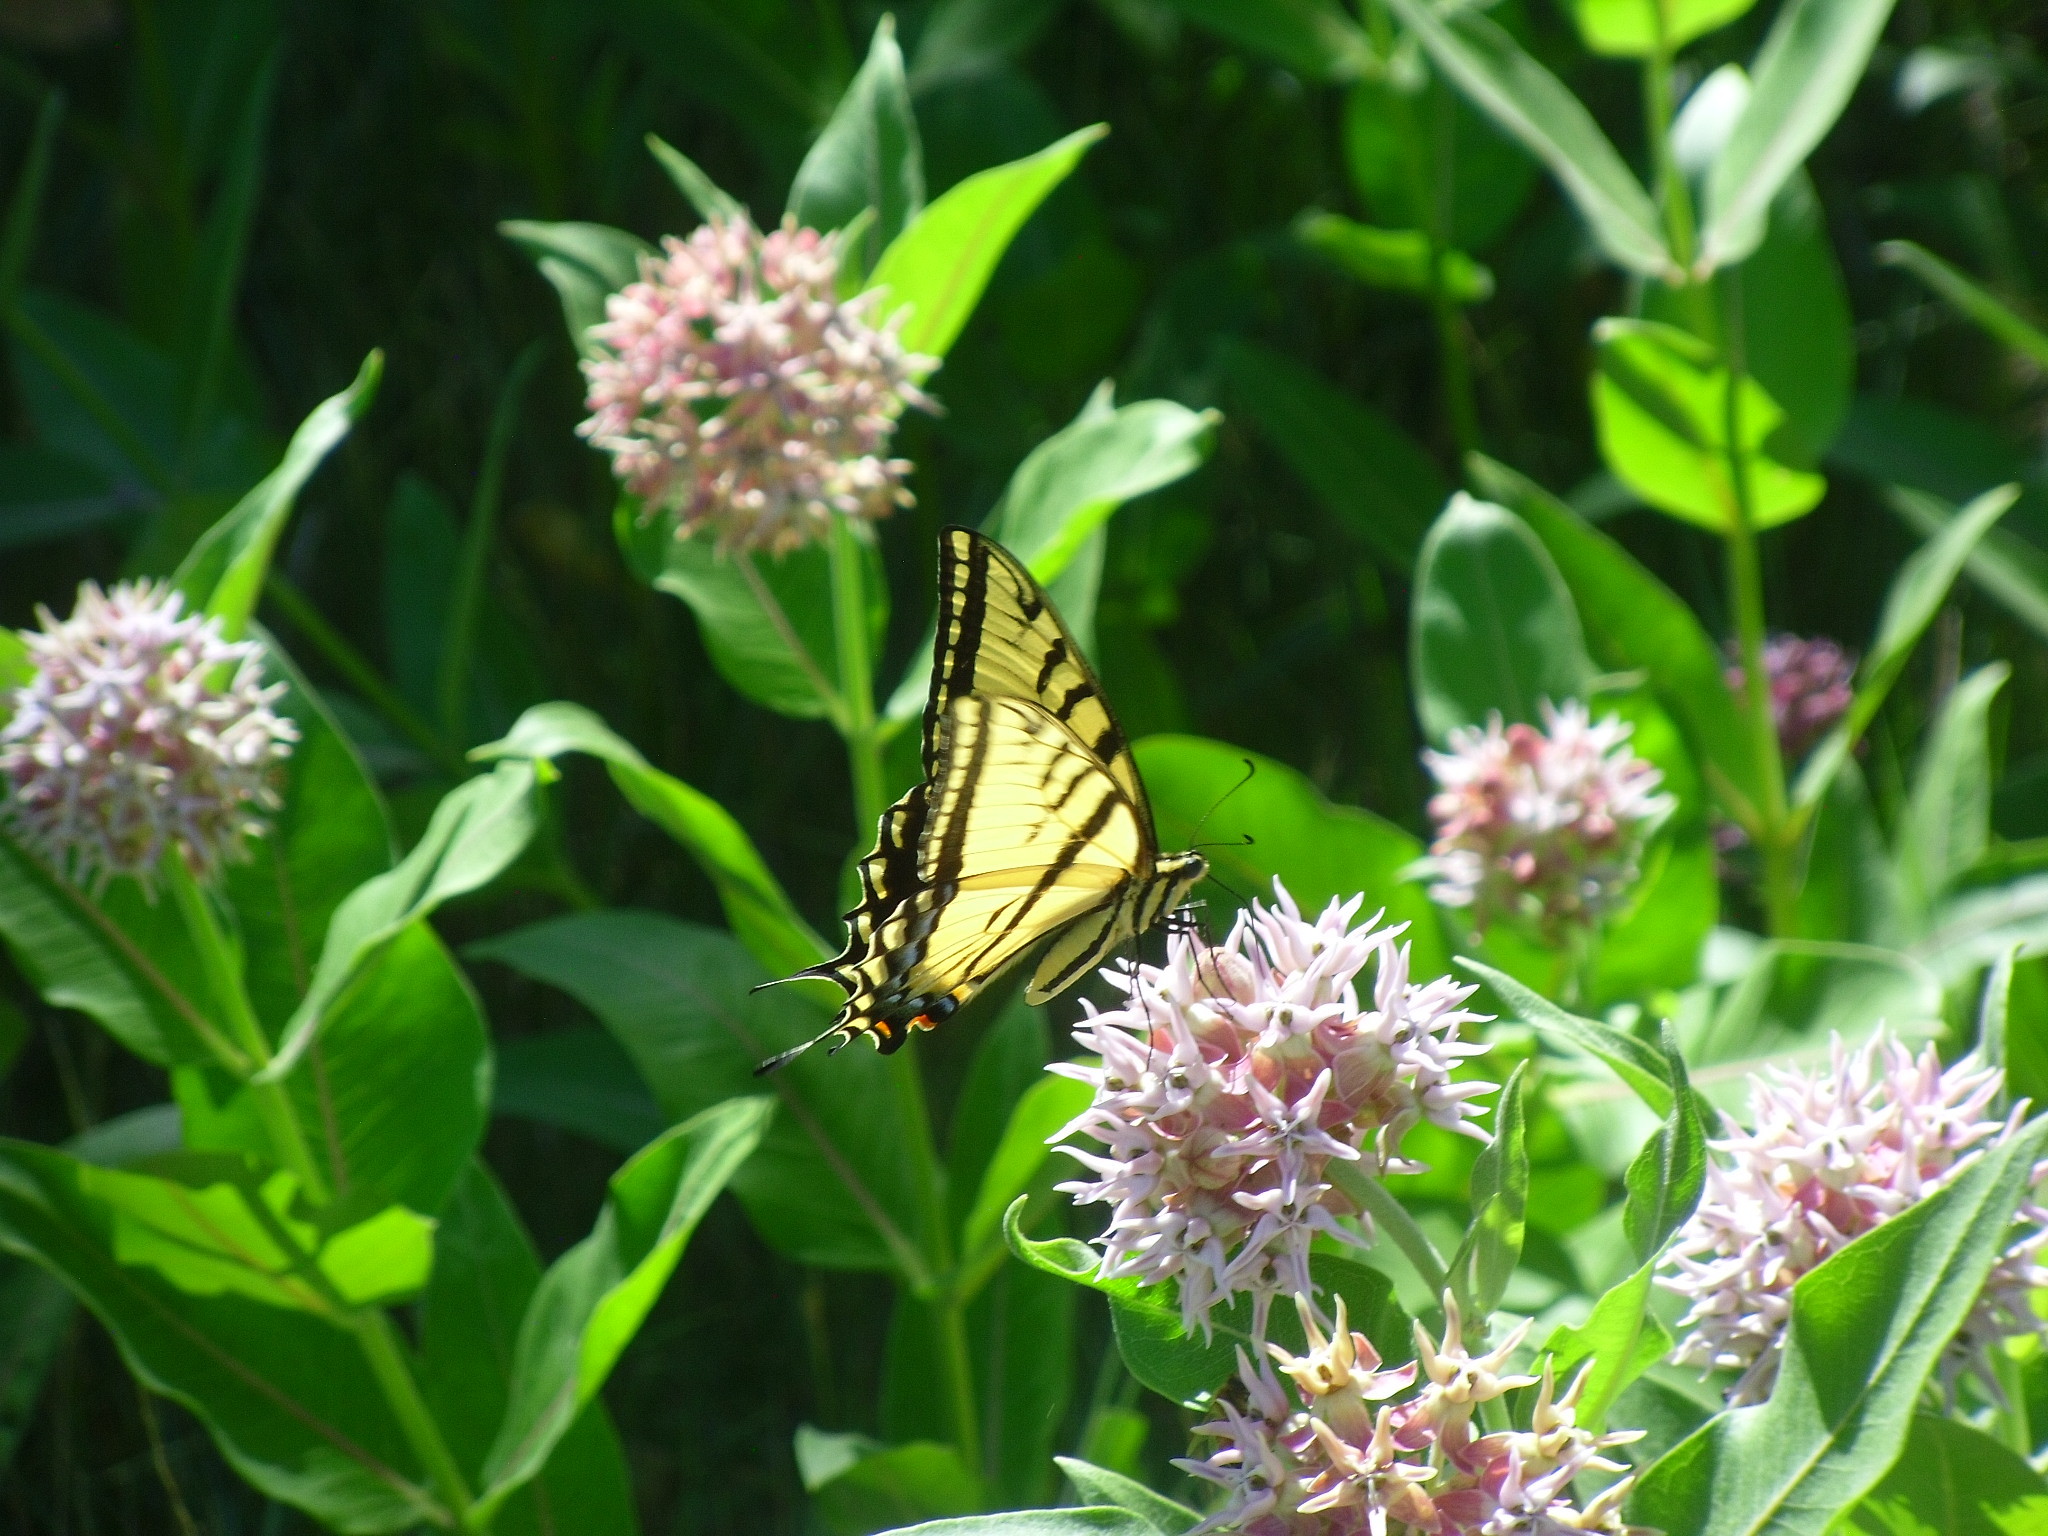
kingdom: Animalia
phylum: Arthropoda
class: Insecta
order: Lepidoptera
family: Papilionidae
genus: Papilio
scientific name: Papilio multicaudata
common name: Two-tailed tiger swallowtail
